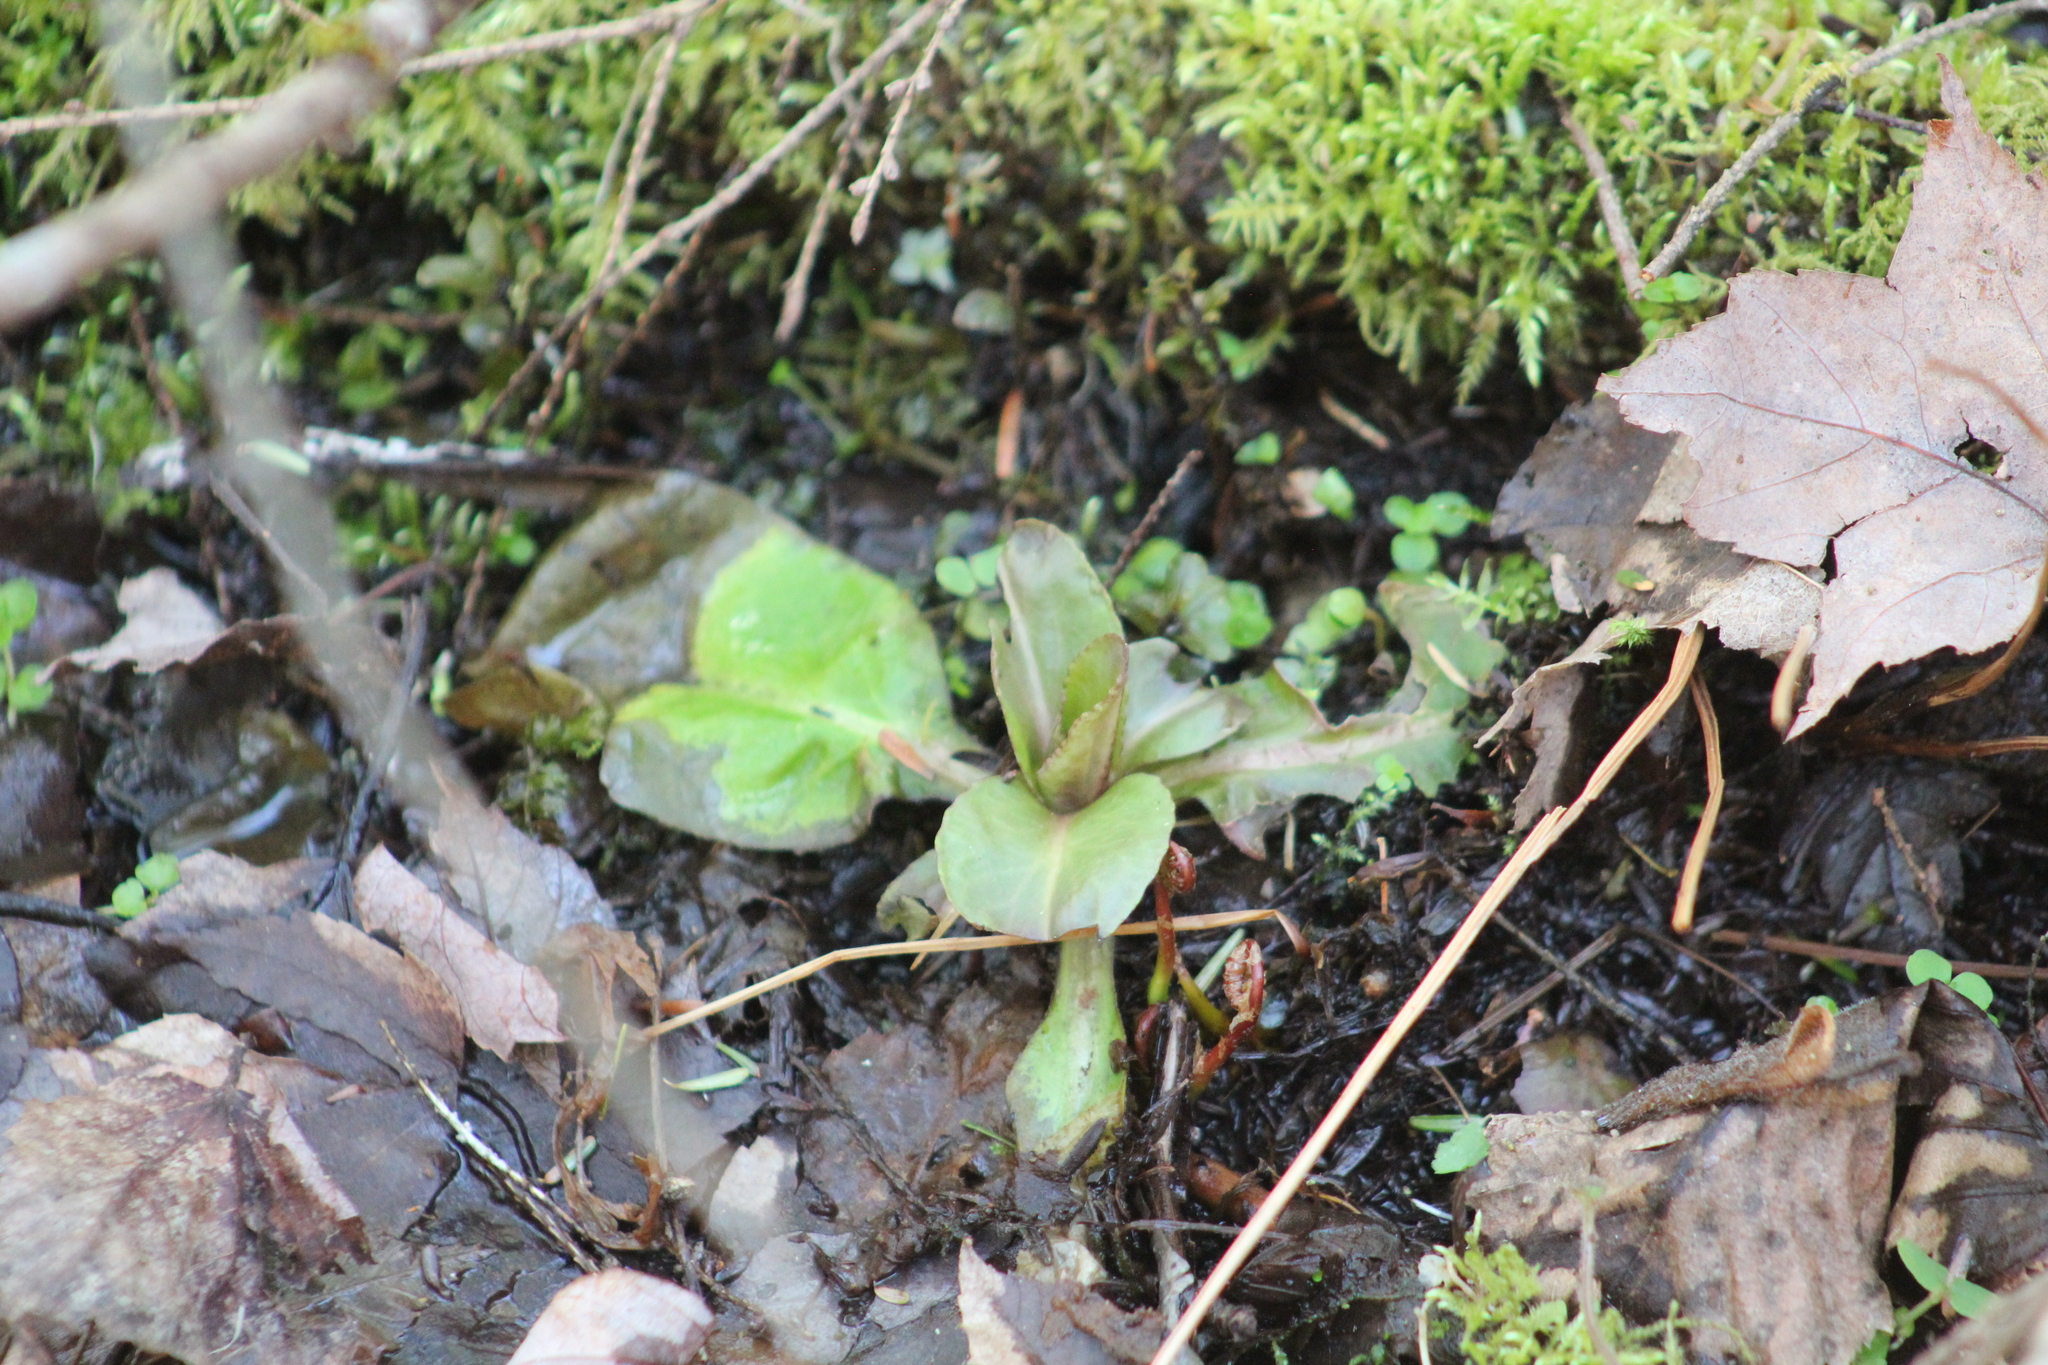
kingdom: Plantae
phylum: Tracheophyta
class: Magnoliopsida
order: Saxifragales
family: Saxifragaceae
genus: Micranthes
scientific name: Micranthes pensylvanica
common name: Marsh saxifrage
